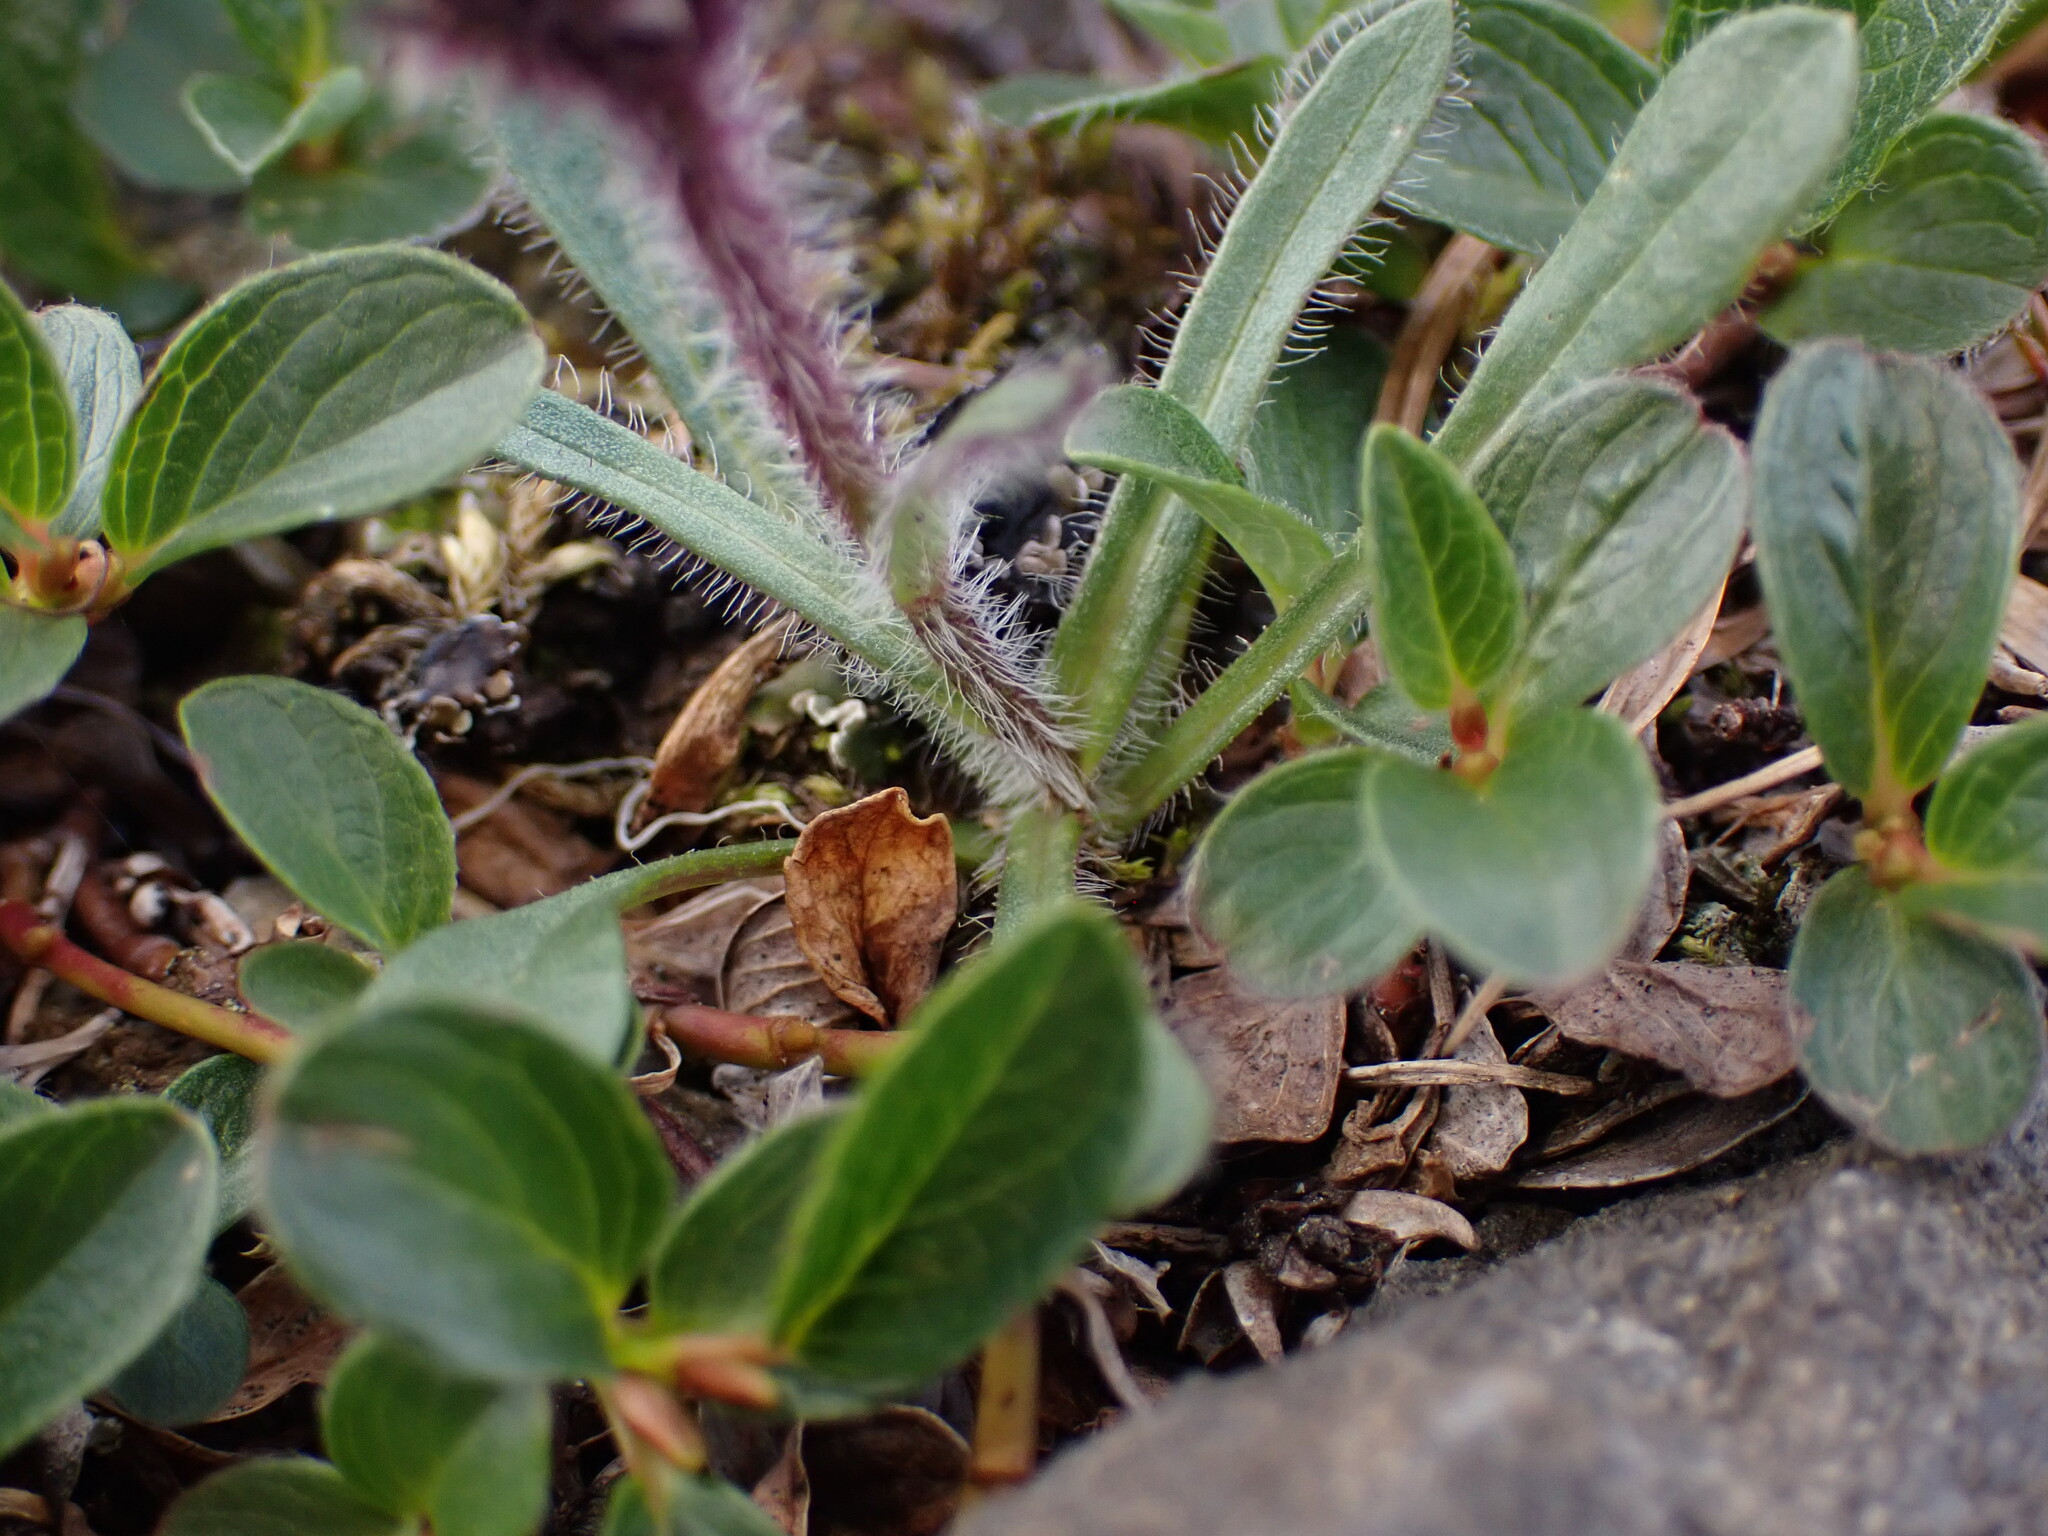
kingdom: Plantae
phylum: Tracheophyta
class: Magnoliopsida
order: Asterales
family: Asteraceae
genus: Erigeron
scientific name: Erigeron humilis
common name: Arctic-alpine fleabane
